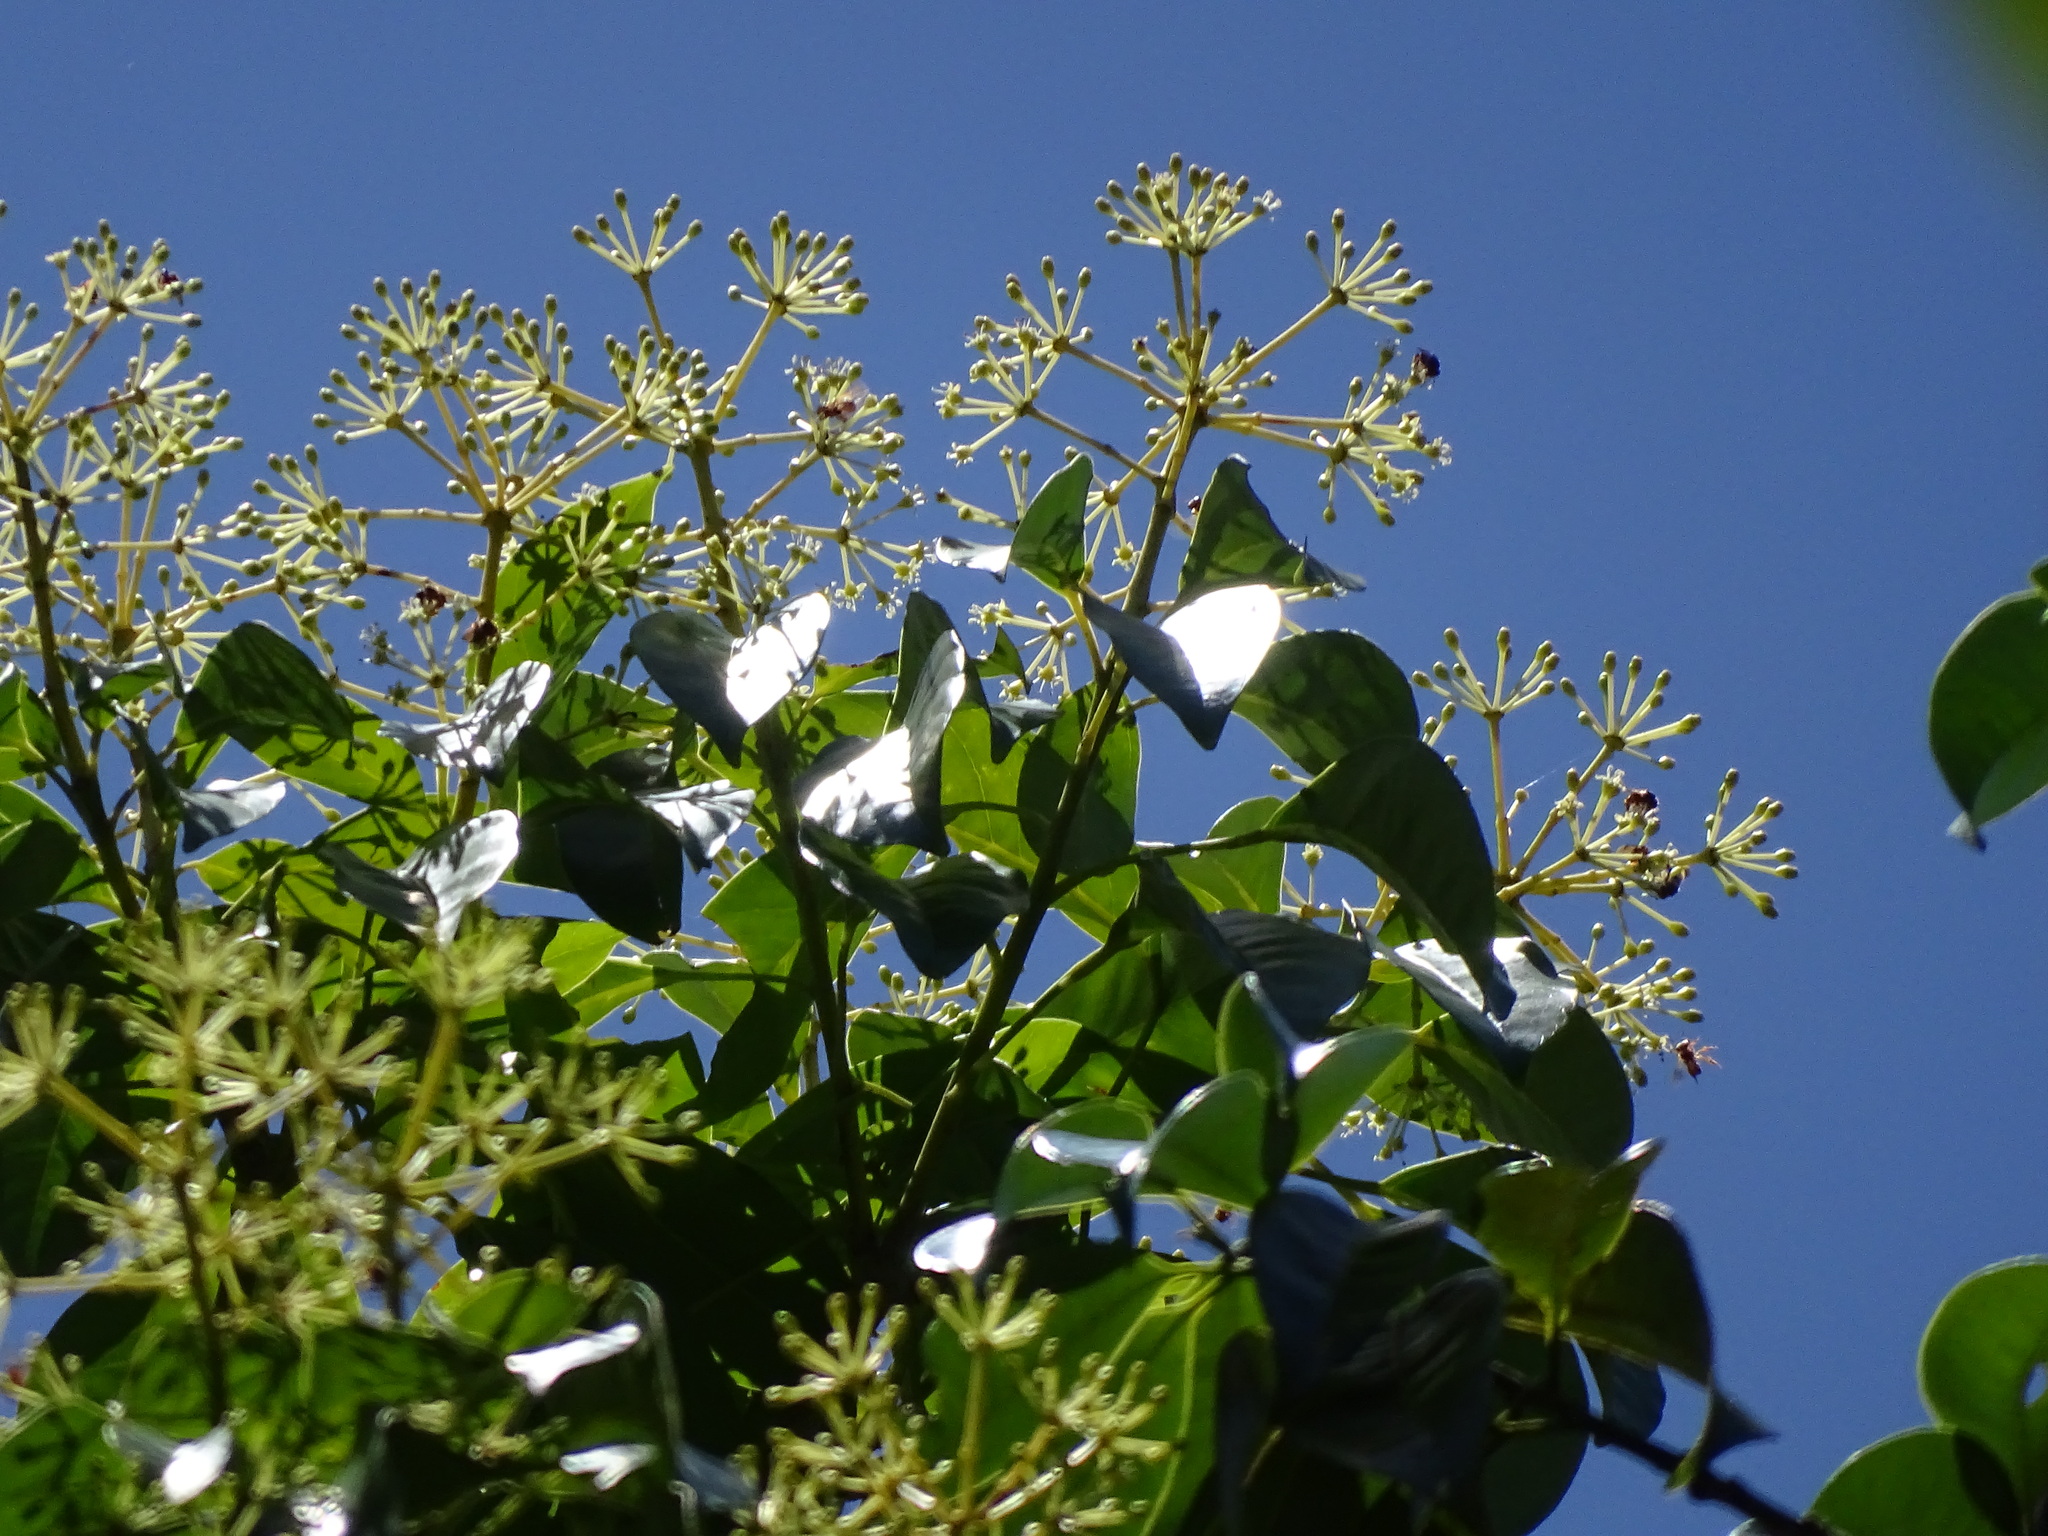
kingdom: Plantae
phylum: Tracheophyta
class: Magnoliopsida
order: Apiales
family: Araliaceae
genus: Dendropanax
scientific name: Dendropanax arboreus
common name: Potato-wood
